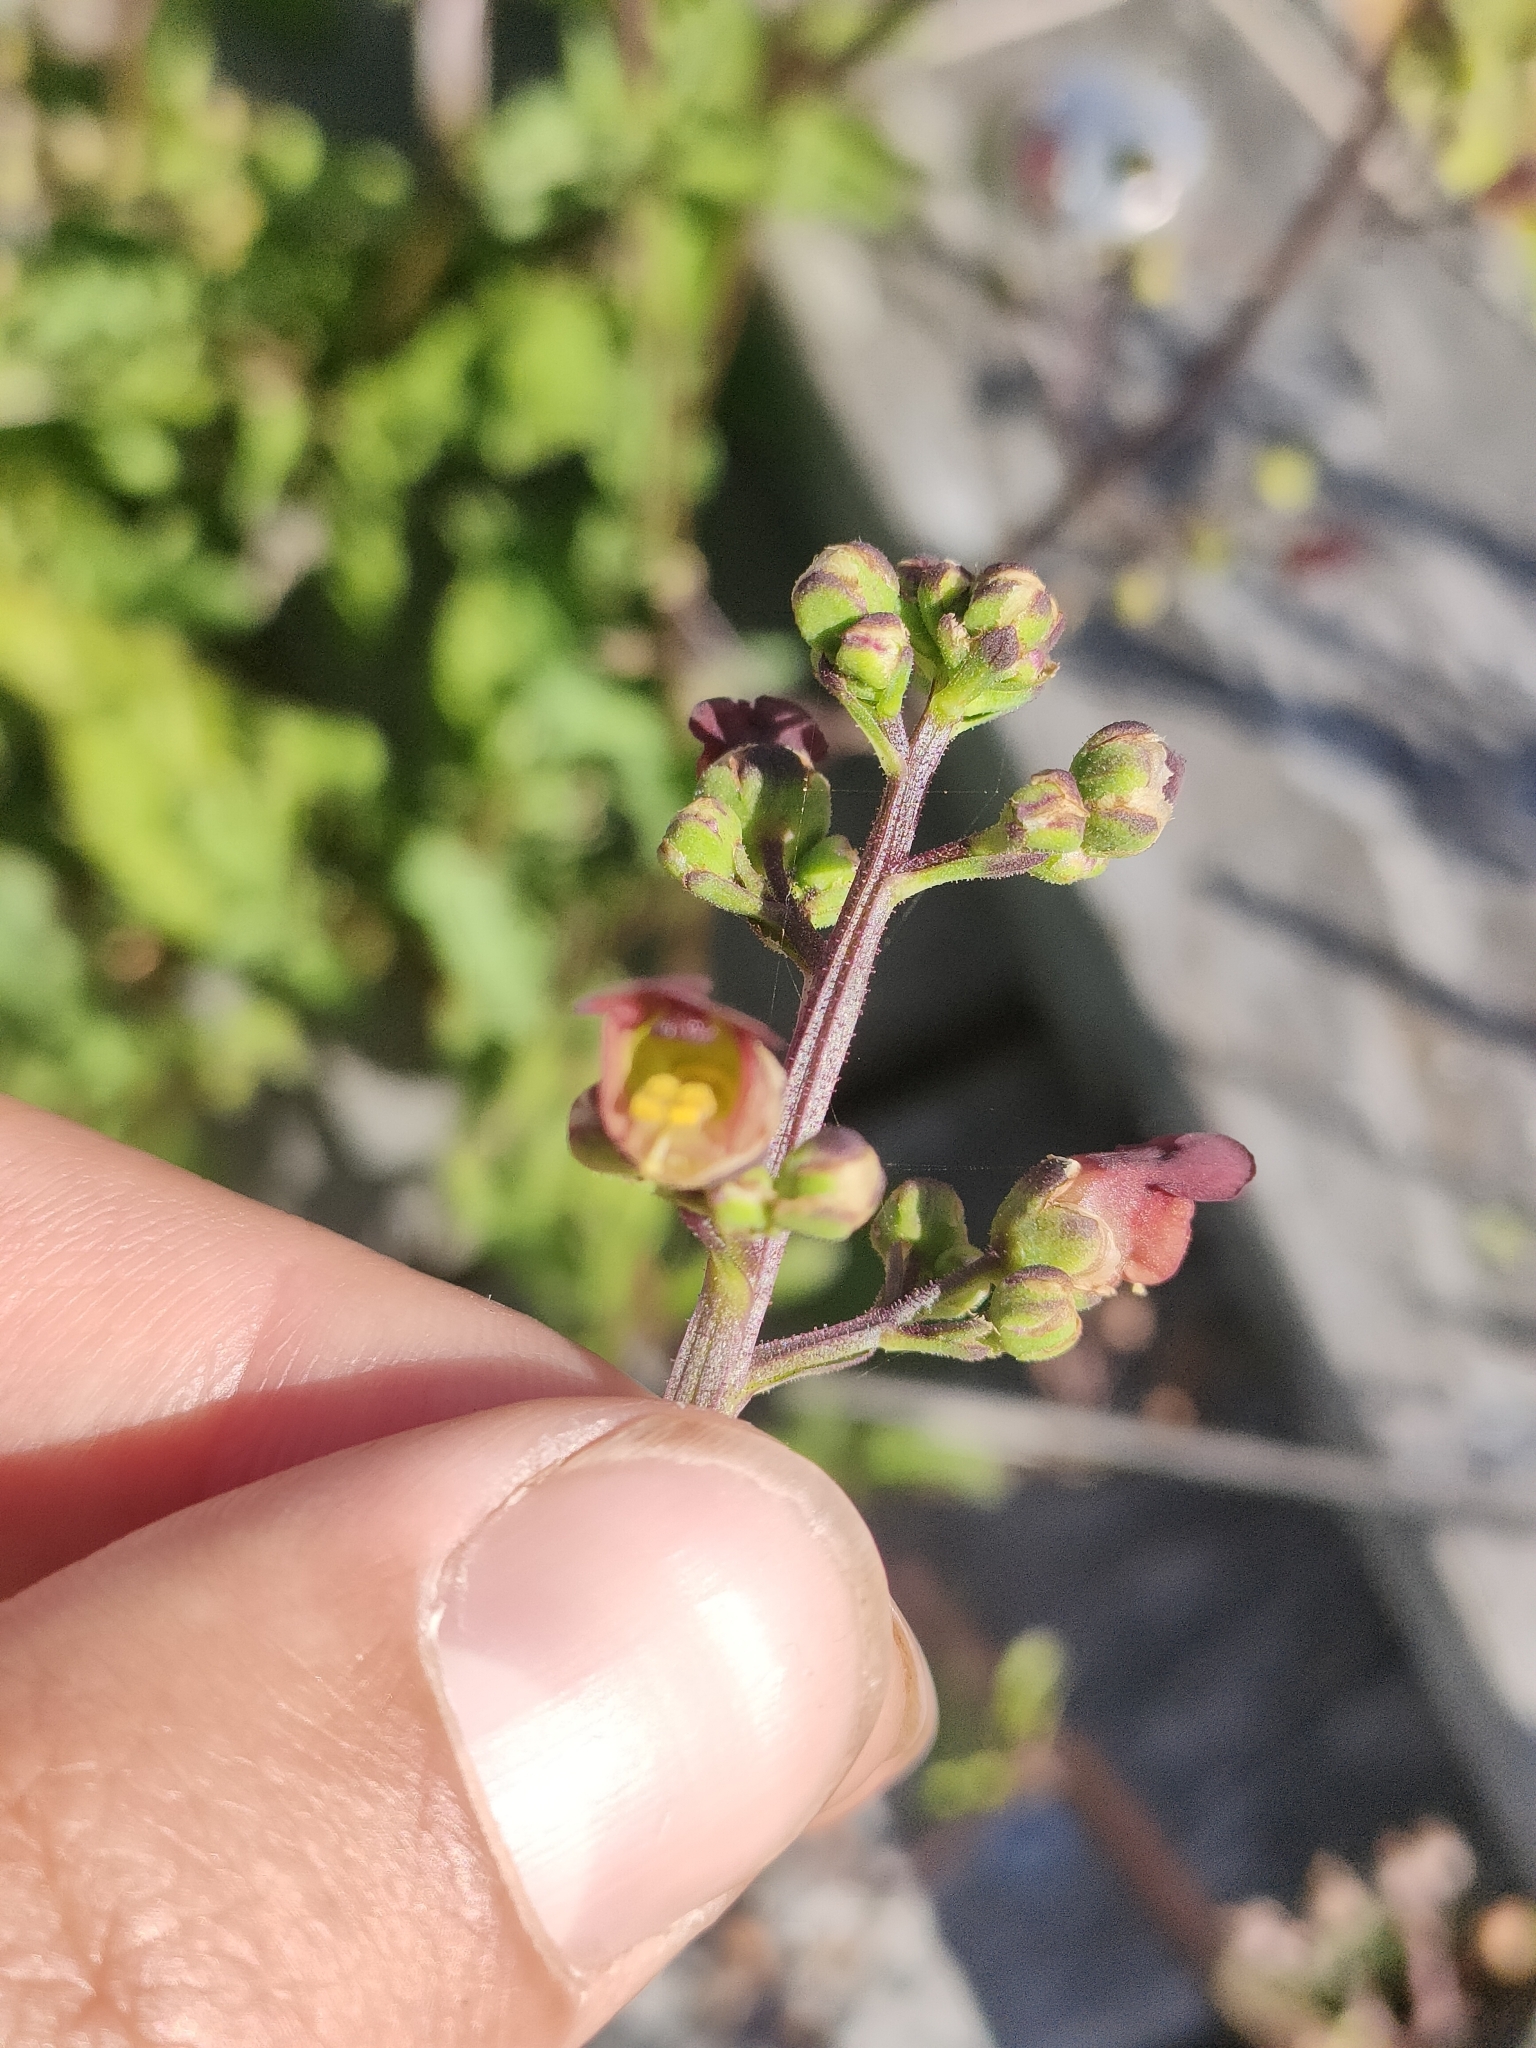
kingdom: Plantae
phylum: Tracheophyta
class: Magnoliopsida
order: Lamiales
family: Scrophulariaceae
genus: Scrophularia
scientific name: Scrophularia auriculata
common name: Water betony
